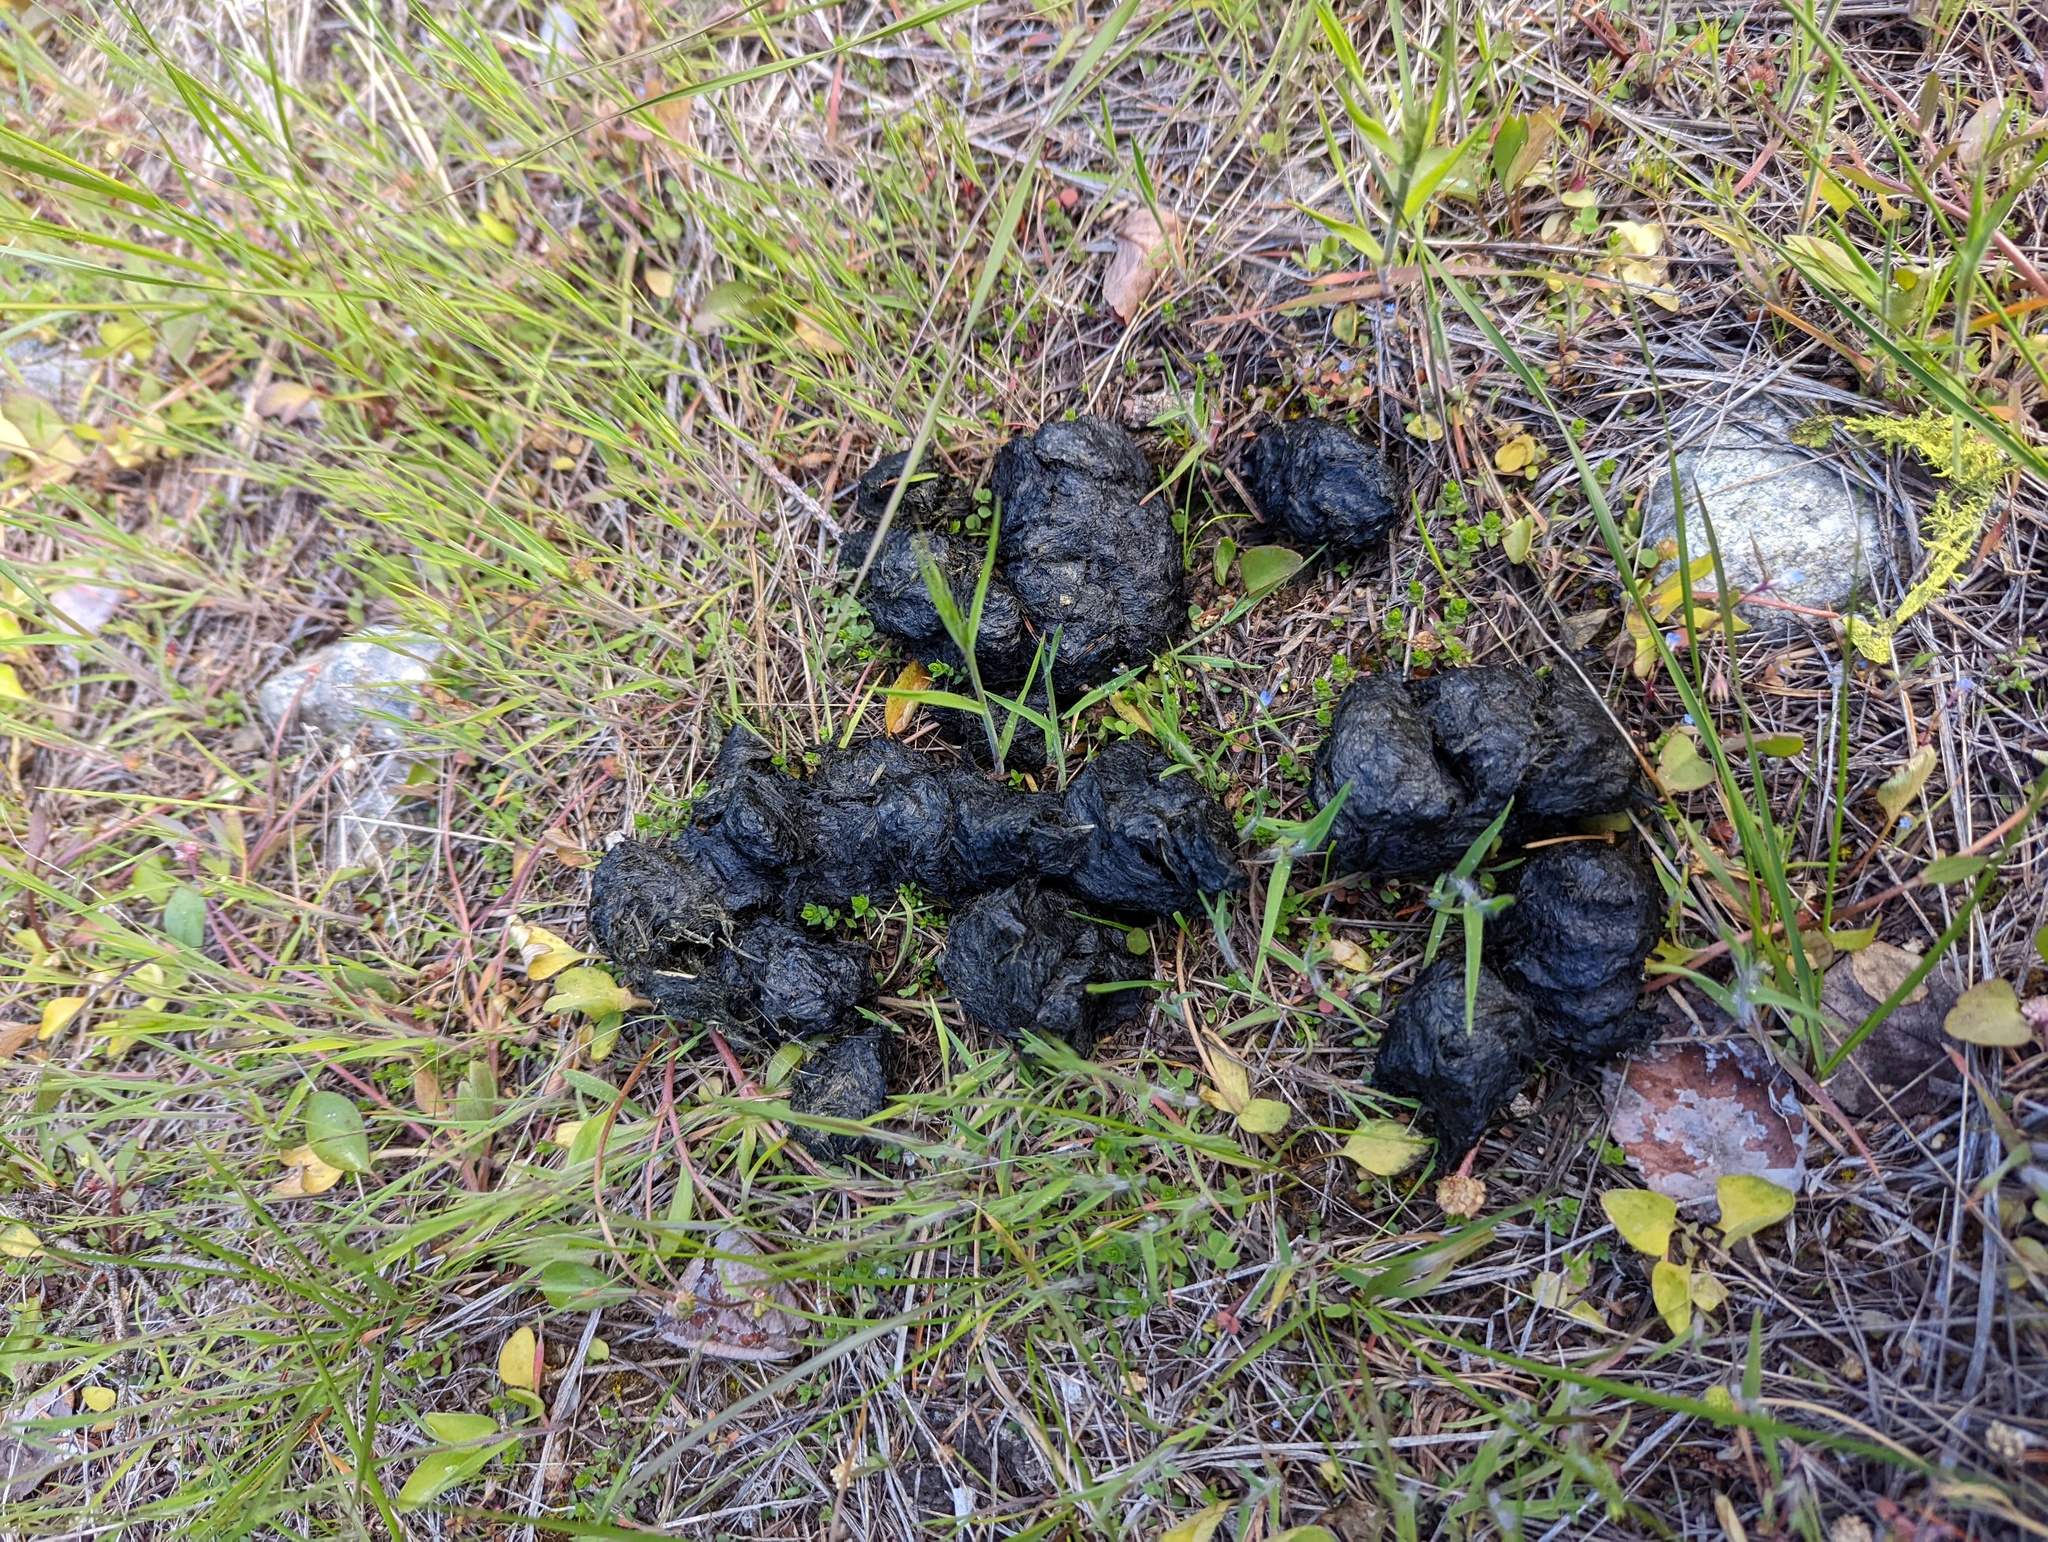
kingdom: Animalia
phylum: Chordata
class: Mammalia
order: Carnivora
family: Ursidae
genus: Ursus
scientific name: Ursus americanus
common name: American black bear
